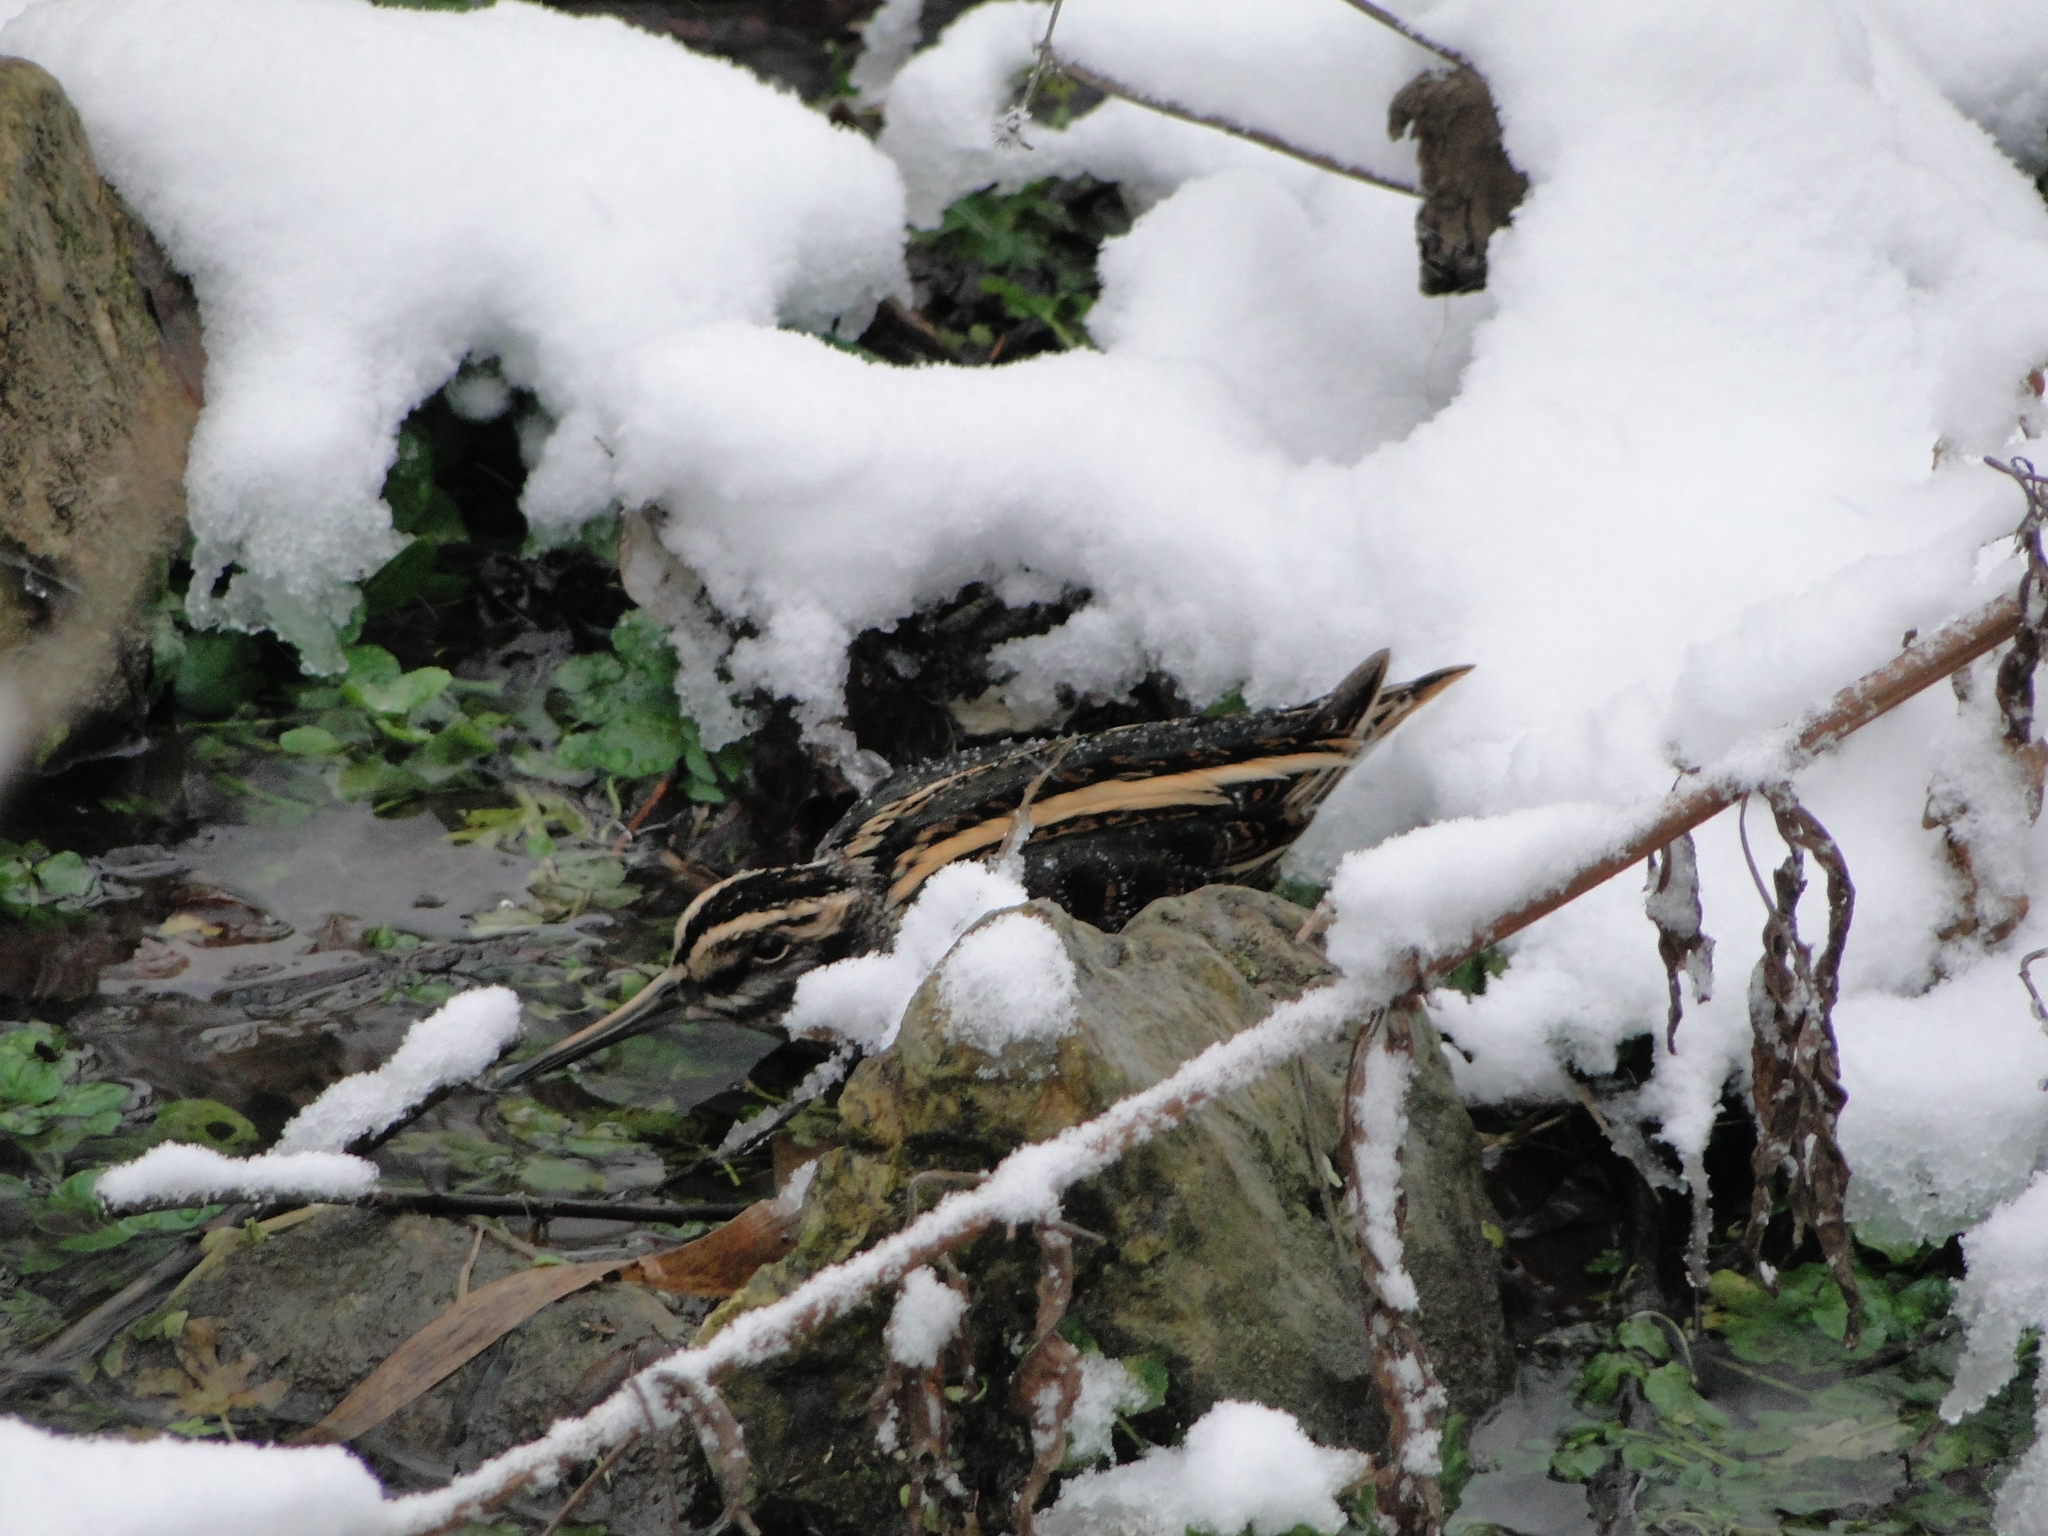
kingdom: Animalia
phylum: Chordata
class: Aves
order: Charadriiformes
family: Scolopacidae
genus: Lymnocryptes
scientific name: Lymnocryptes minimus
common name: Jack snipe
